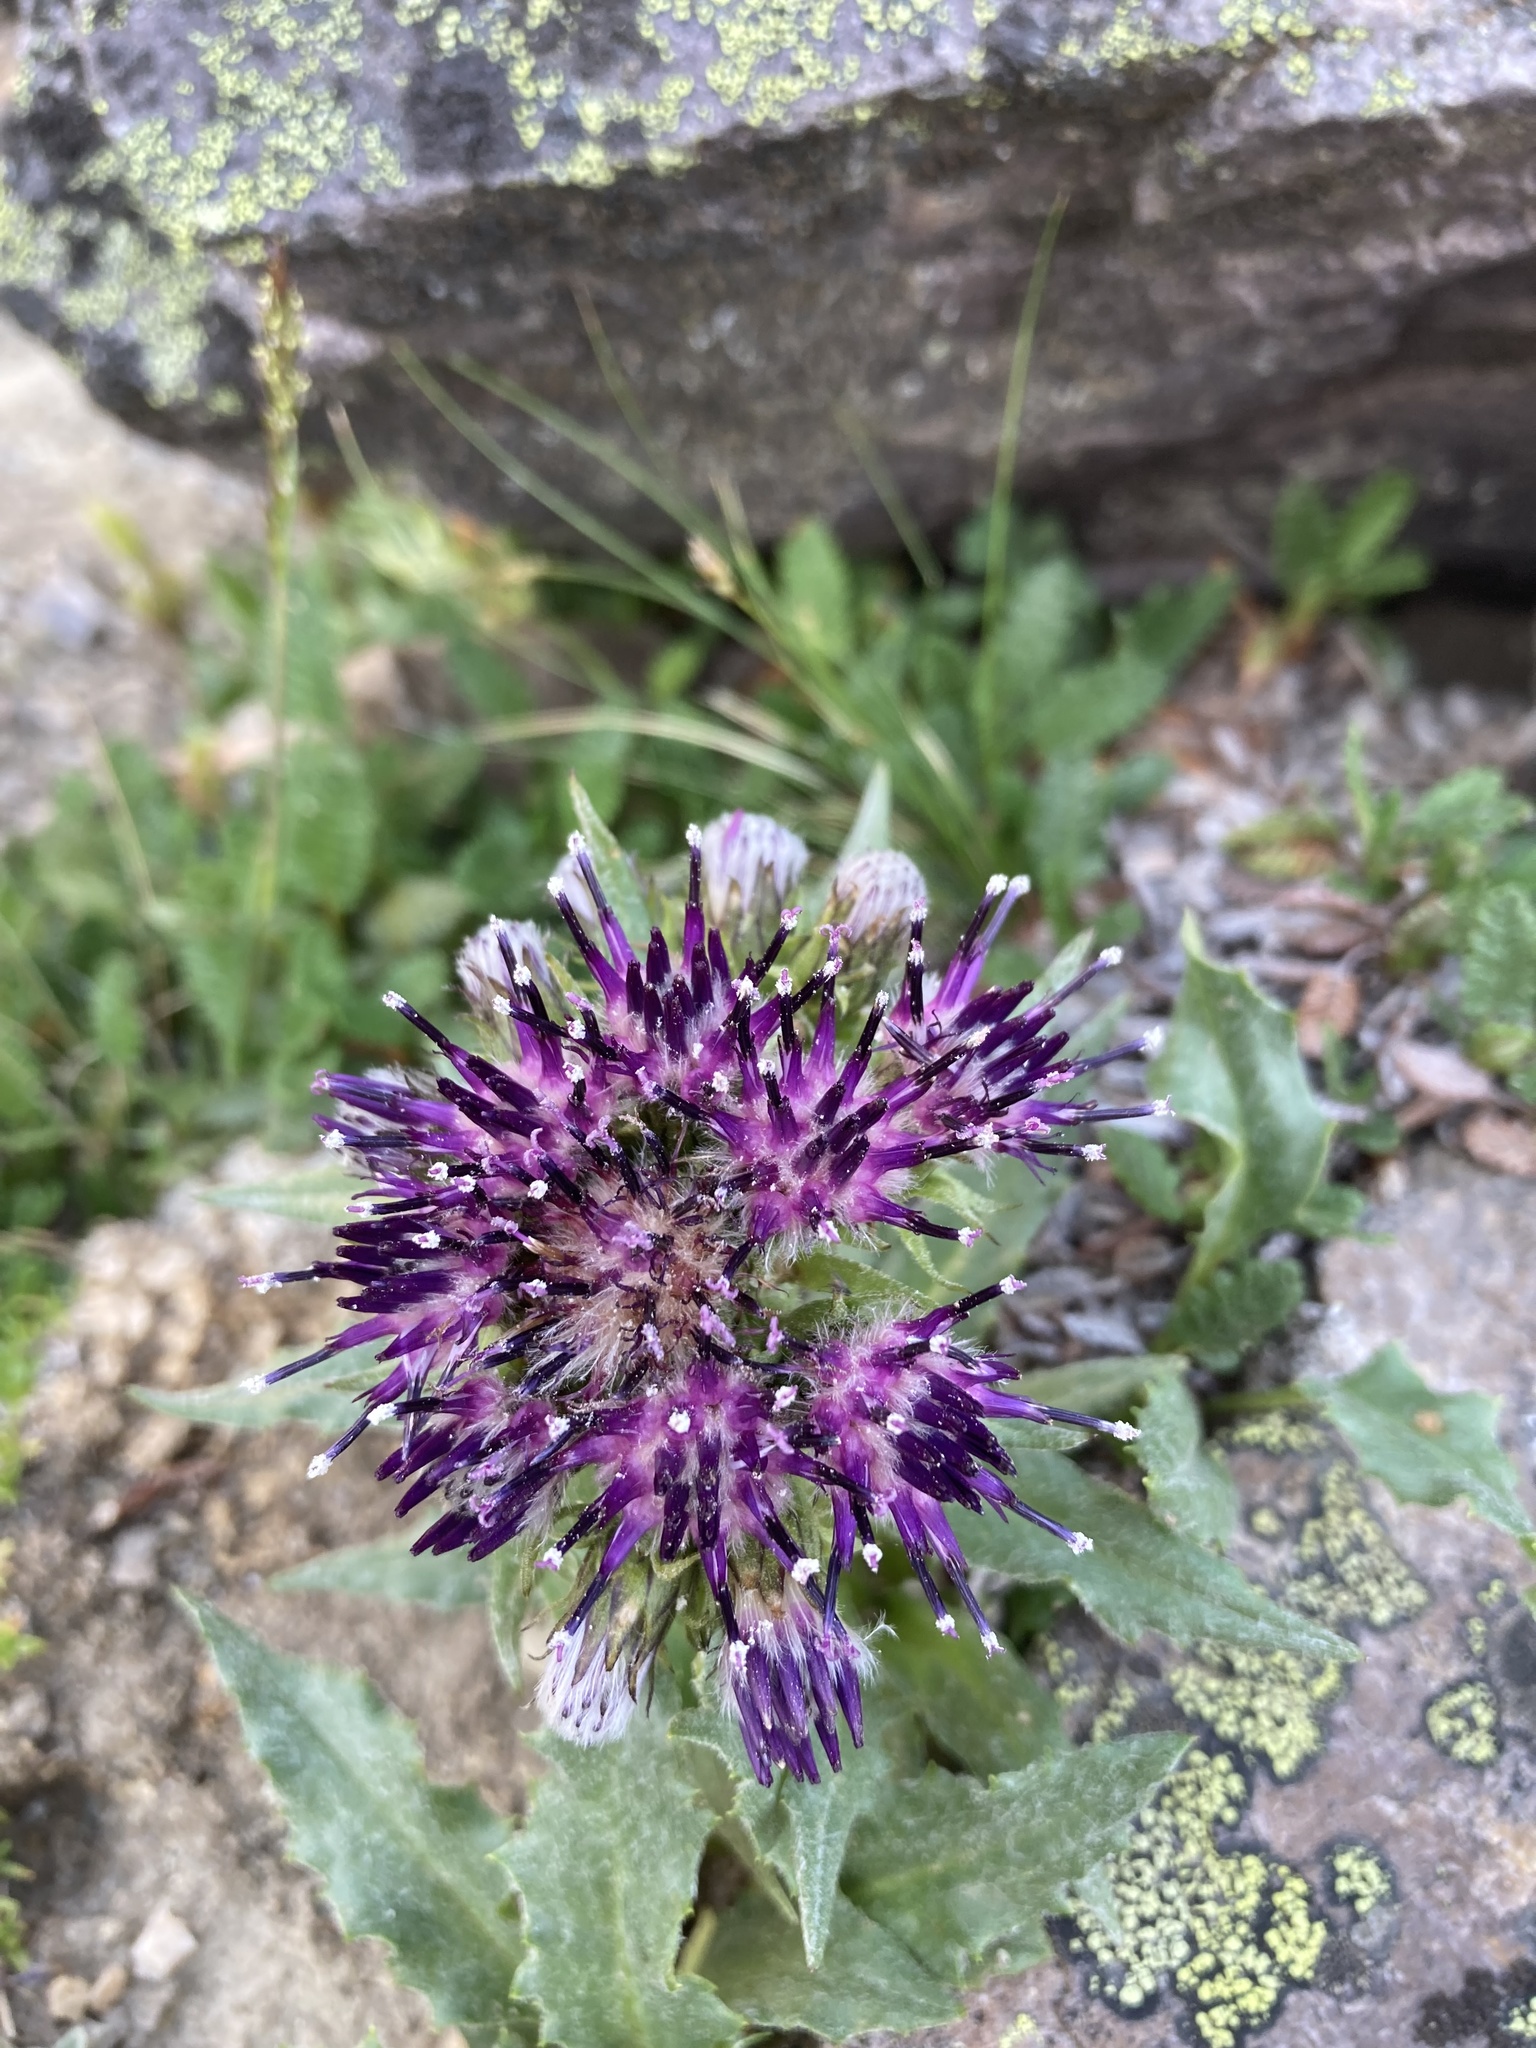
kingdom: Plantae
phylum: Tracheophyta
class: Magnoliopsida
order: Asterales
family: Asteraceae
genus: Saussurea
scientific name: Saussurea nuda
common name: Chaffless saw-wort
